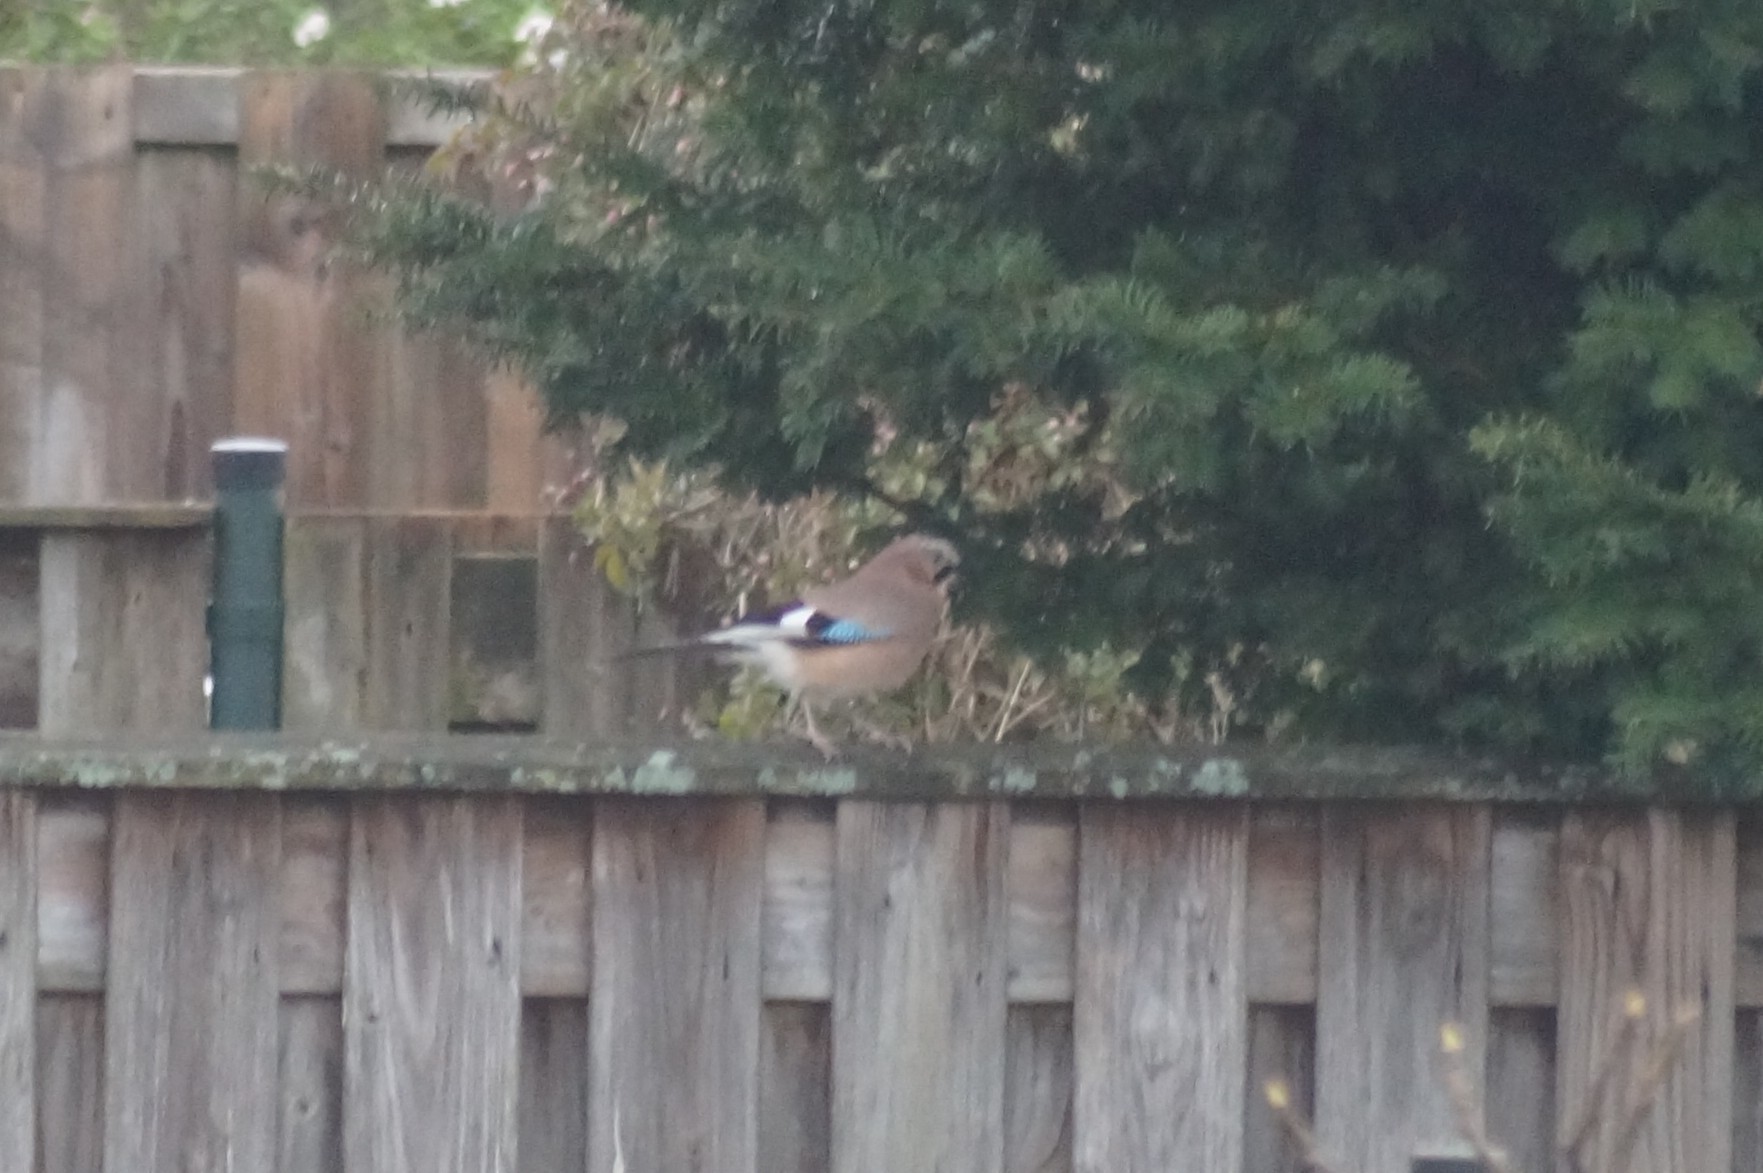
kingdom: Animalia
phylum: Chordata
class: Aves
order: Passeriformes
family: Corvidae
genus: Garrulus
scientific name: Garrulus glandarius
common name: Eurasian jay
